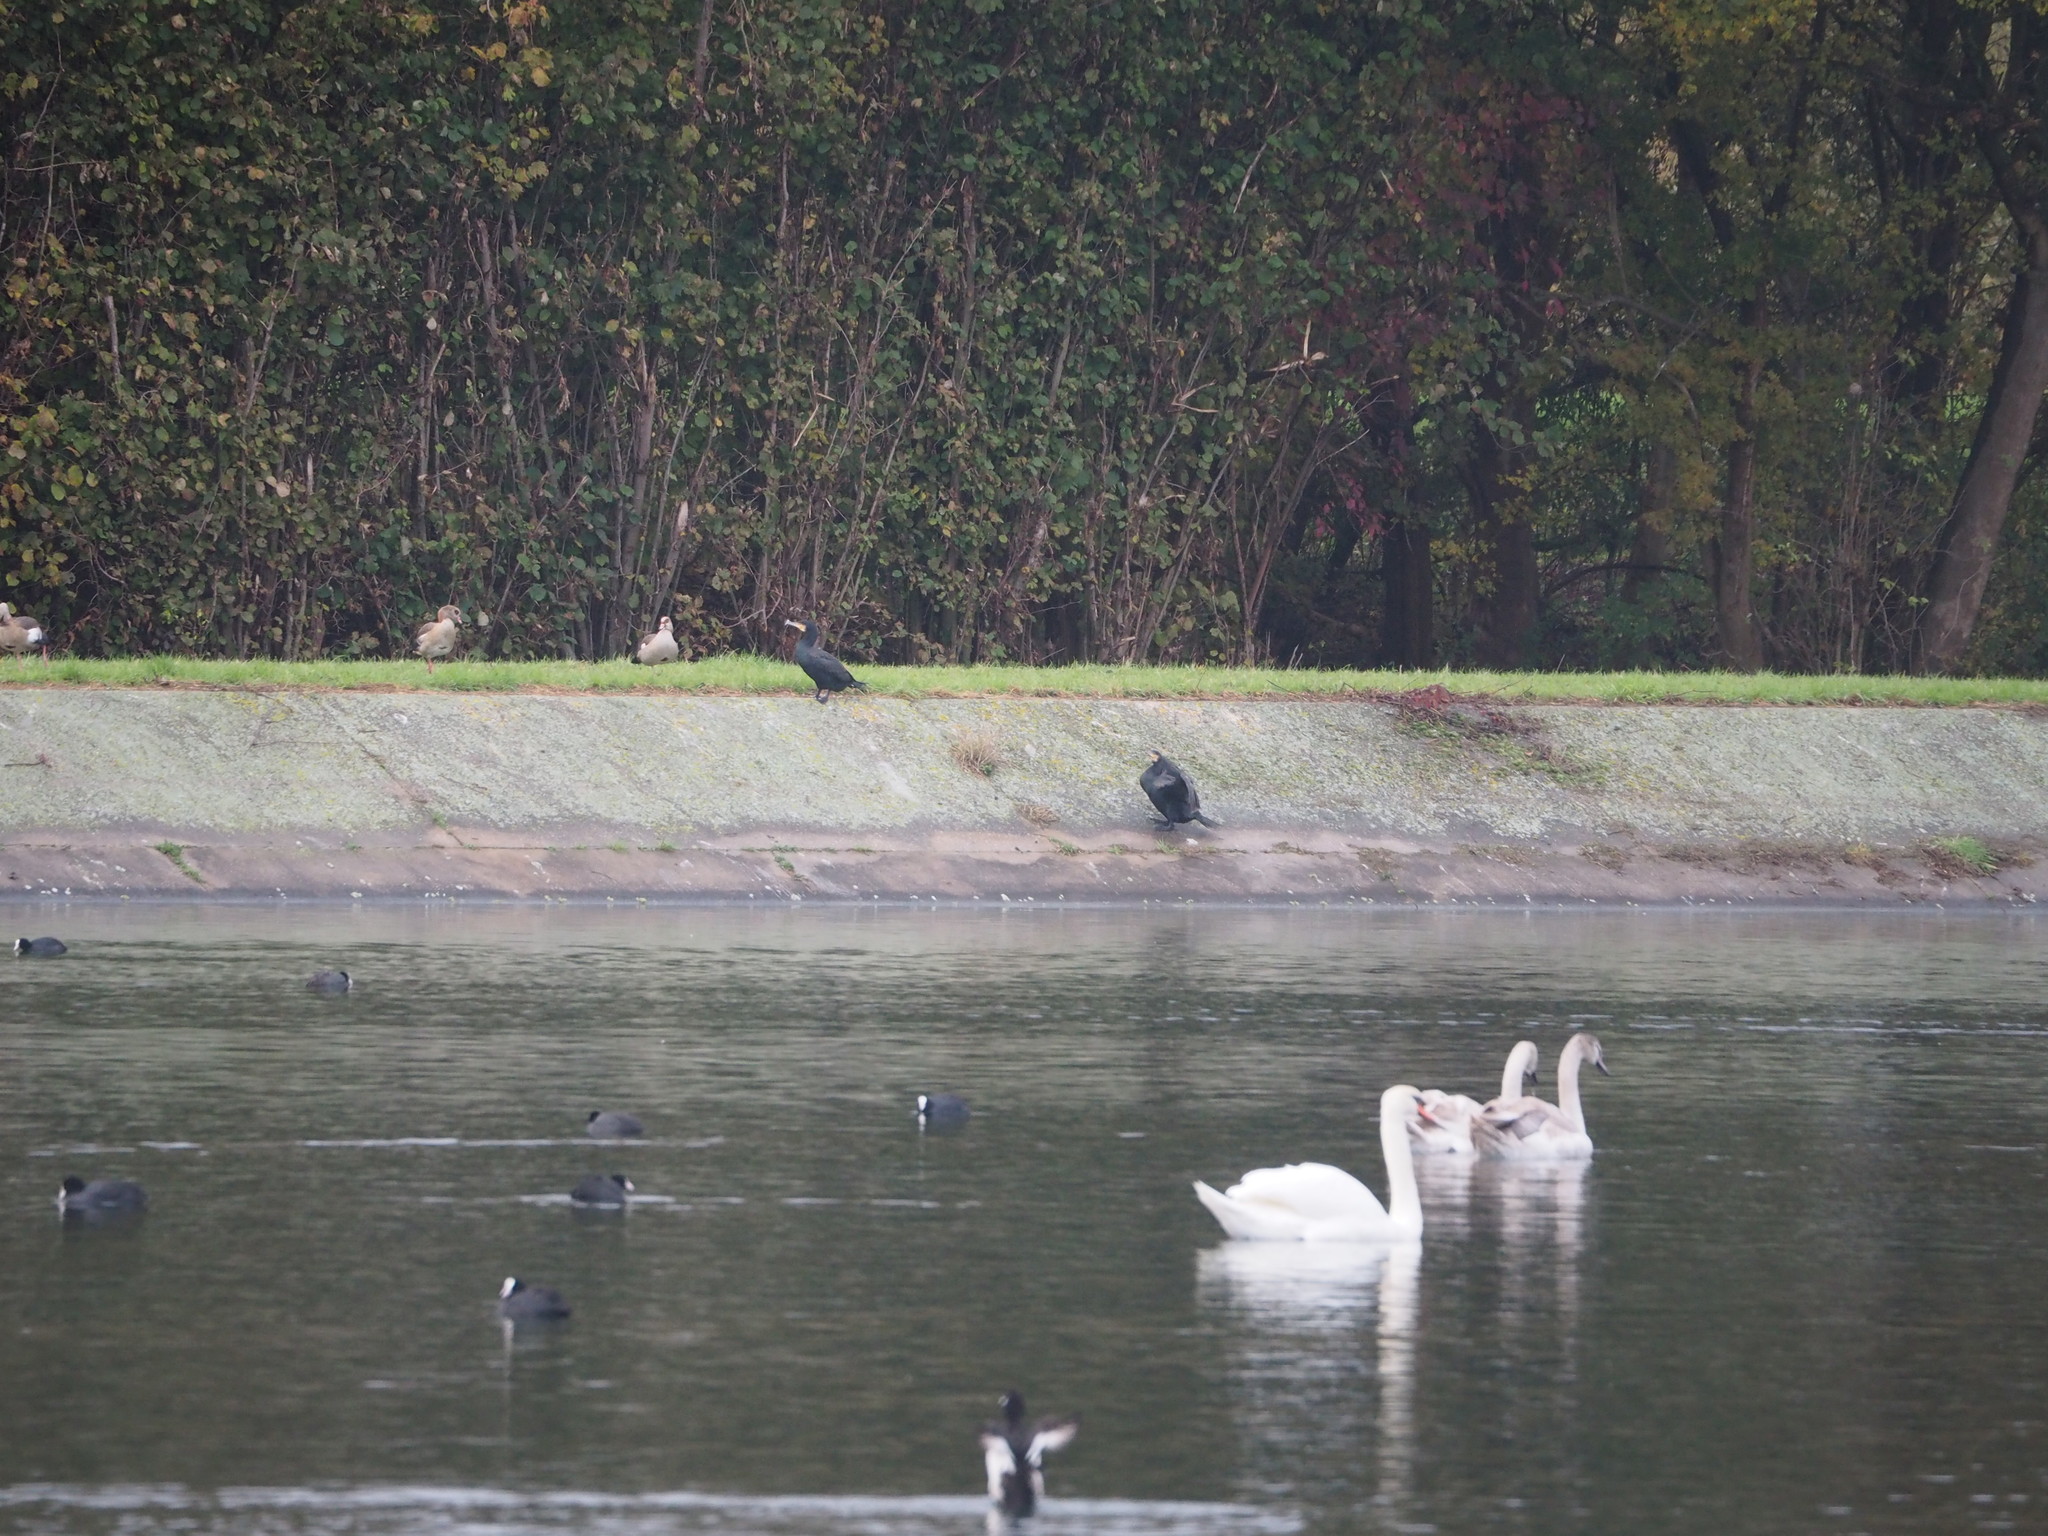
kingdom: Animalia
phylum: Chordata
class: Aves
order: Suliformes
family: Phalacrocoracidae
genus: Phalacrocorax
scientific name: Phalacrocorax carbo
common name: Great cormorant
